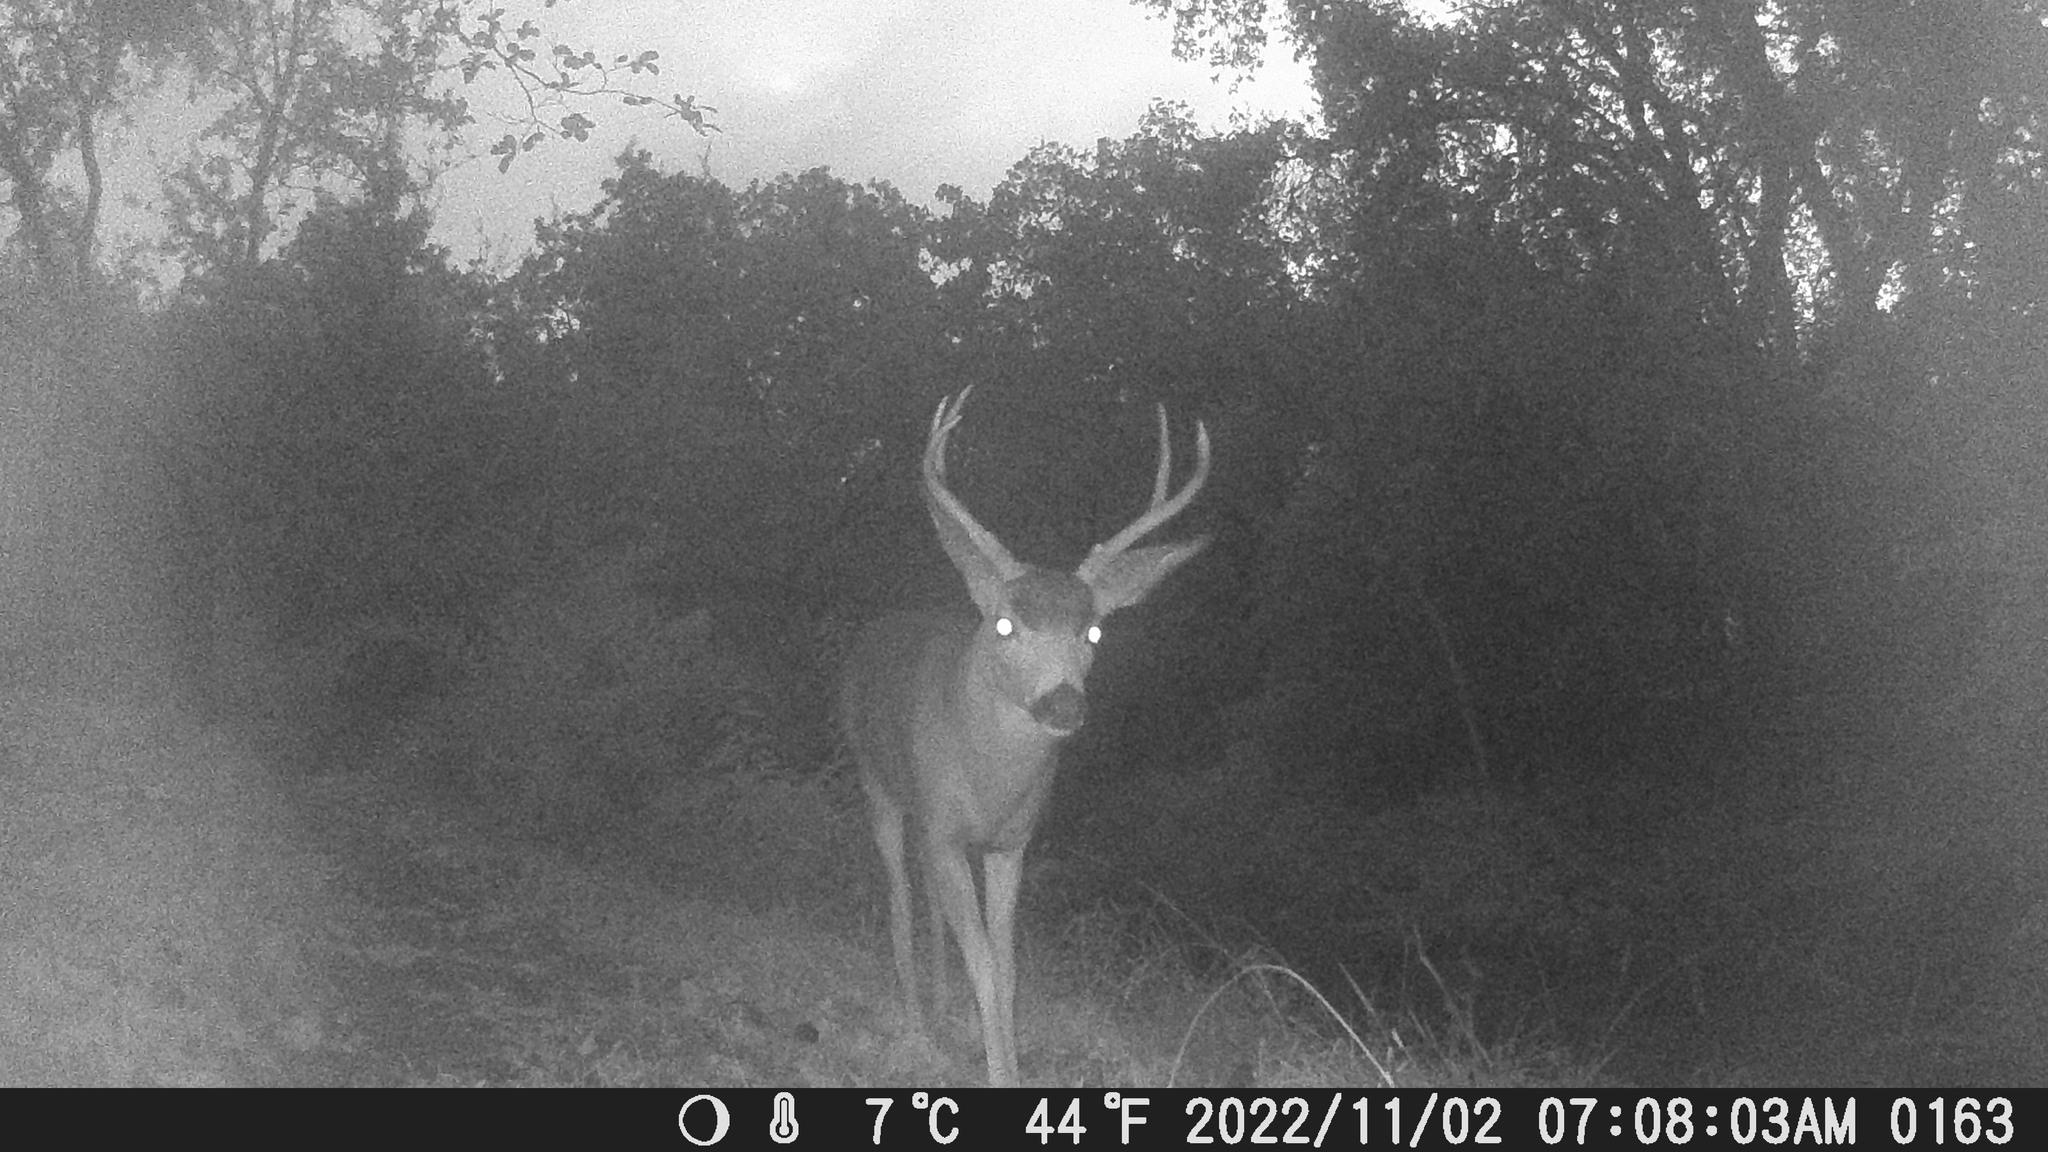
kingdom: Animalia
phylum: Chordata
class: Mammalia
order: Artiodactyla
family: Cervidae
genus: Odocoileus
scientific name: Odocoileus hemionus
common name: Mule deer
